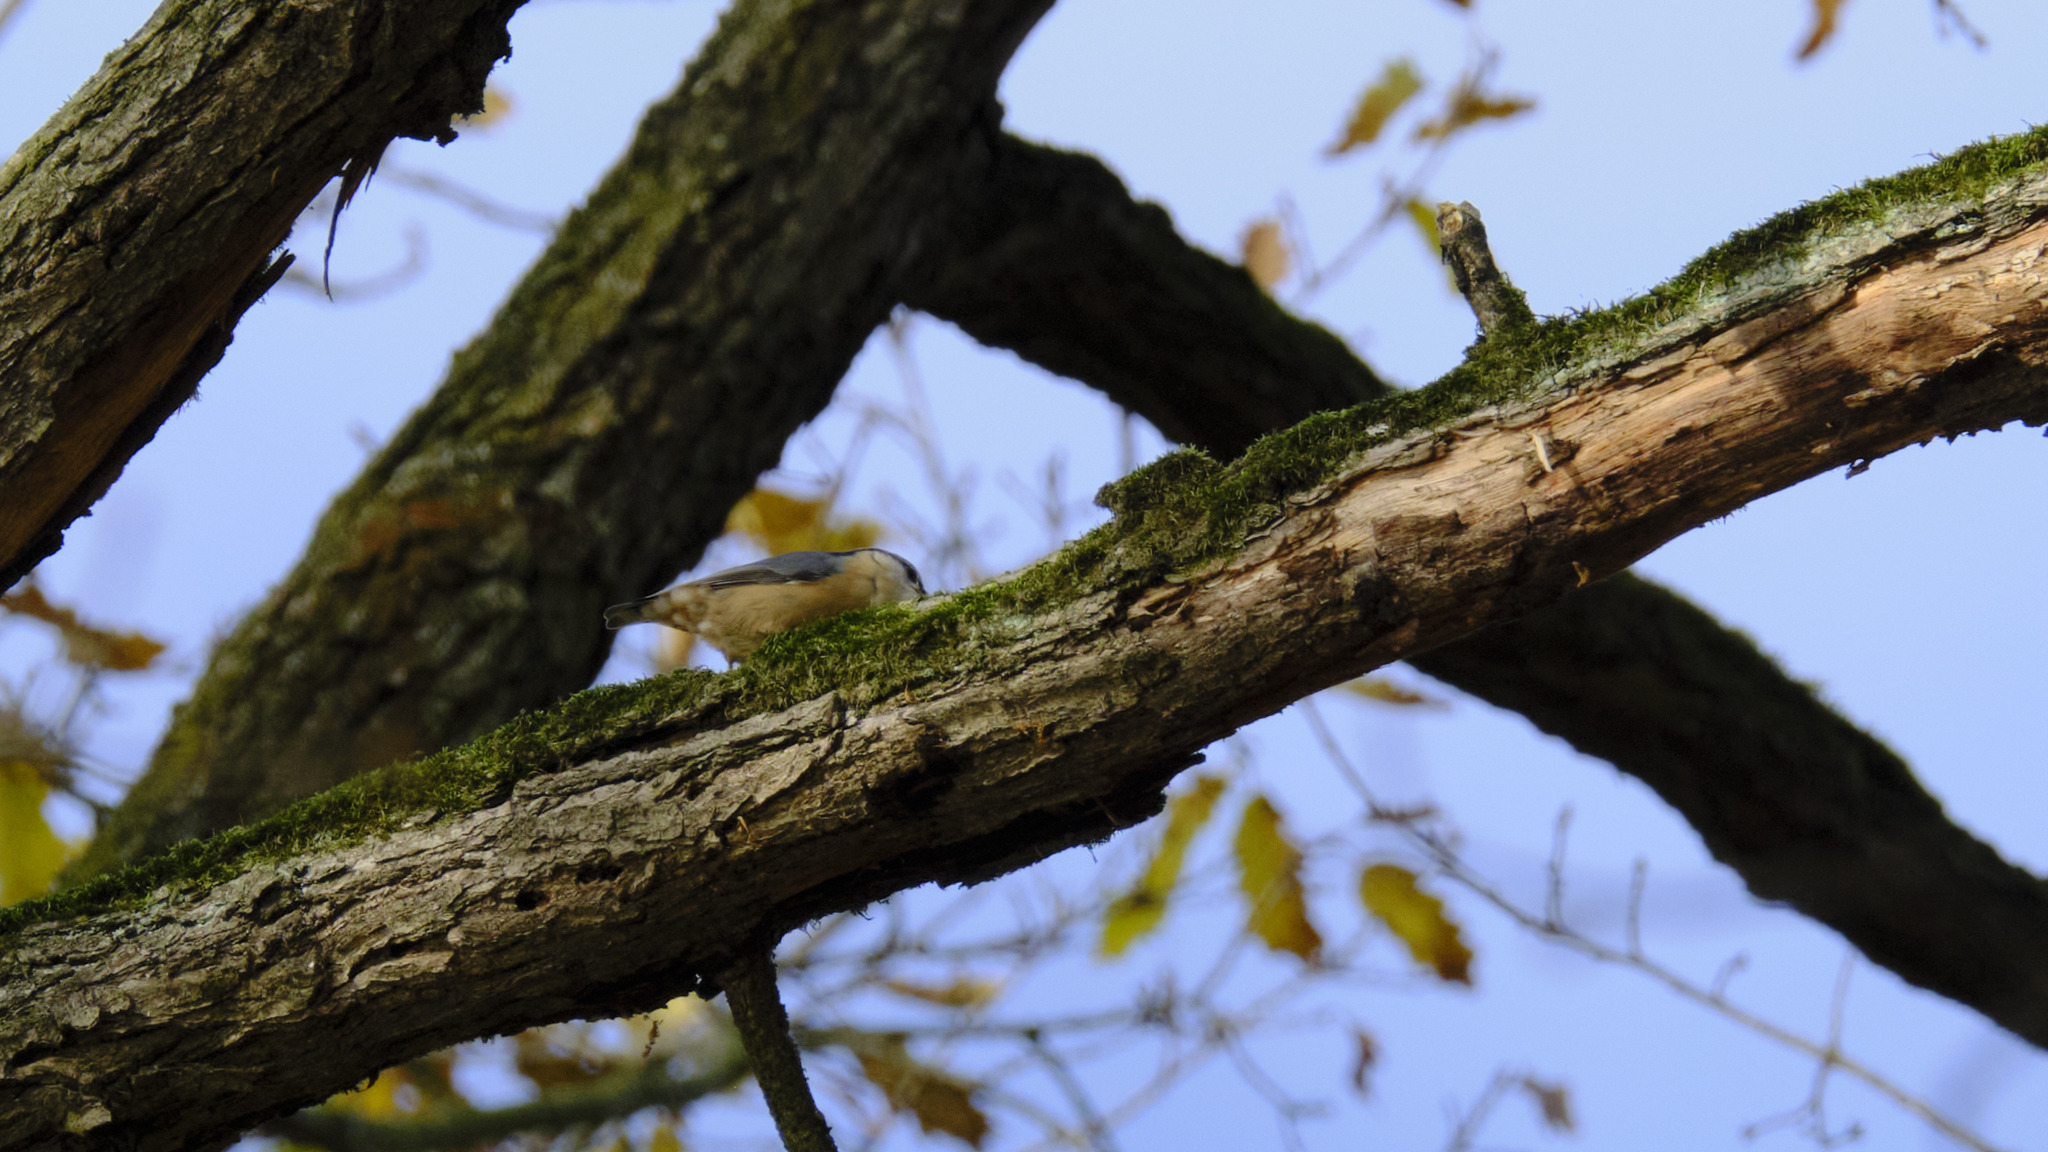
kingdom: Animalia
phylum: Chordata
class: Aves
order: Passeriformes
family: Sittidae
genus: Sitta
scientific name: Sitta europaea
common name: Eurasian nuthatch
